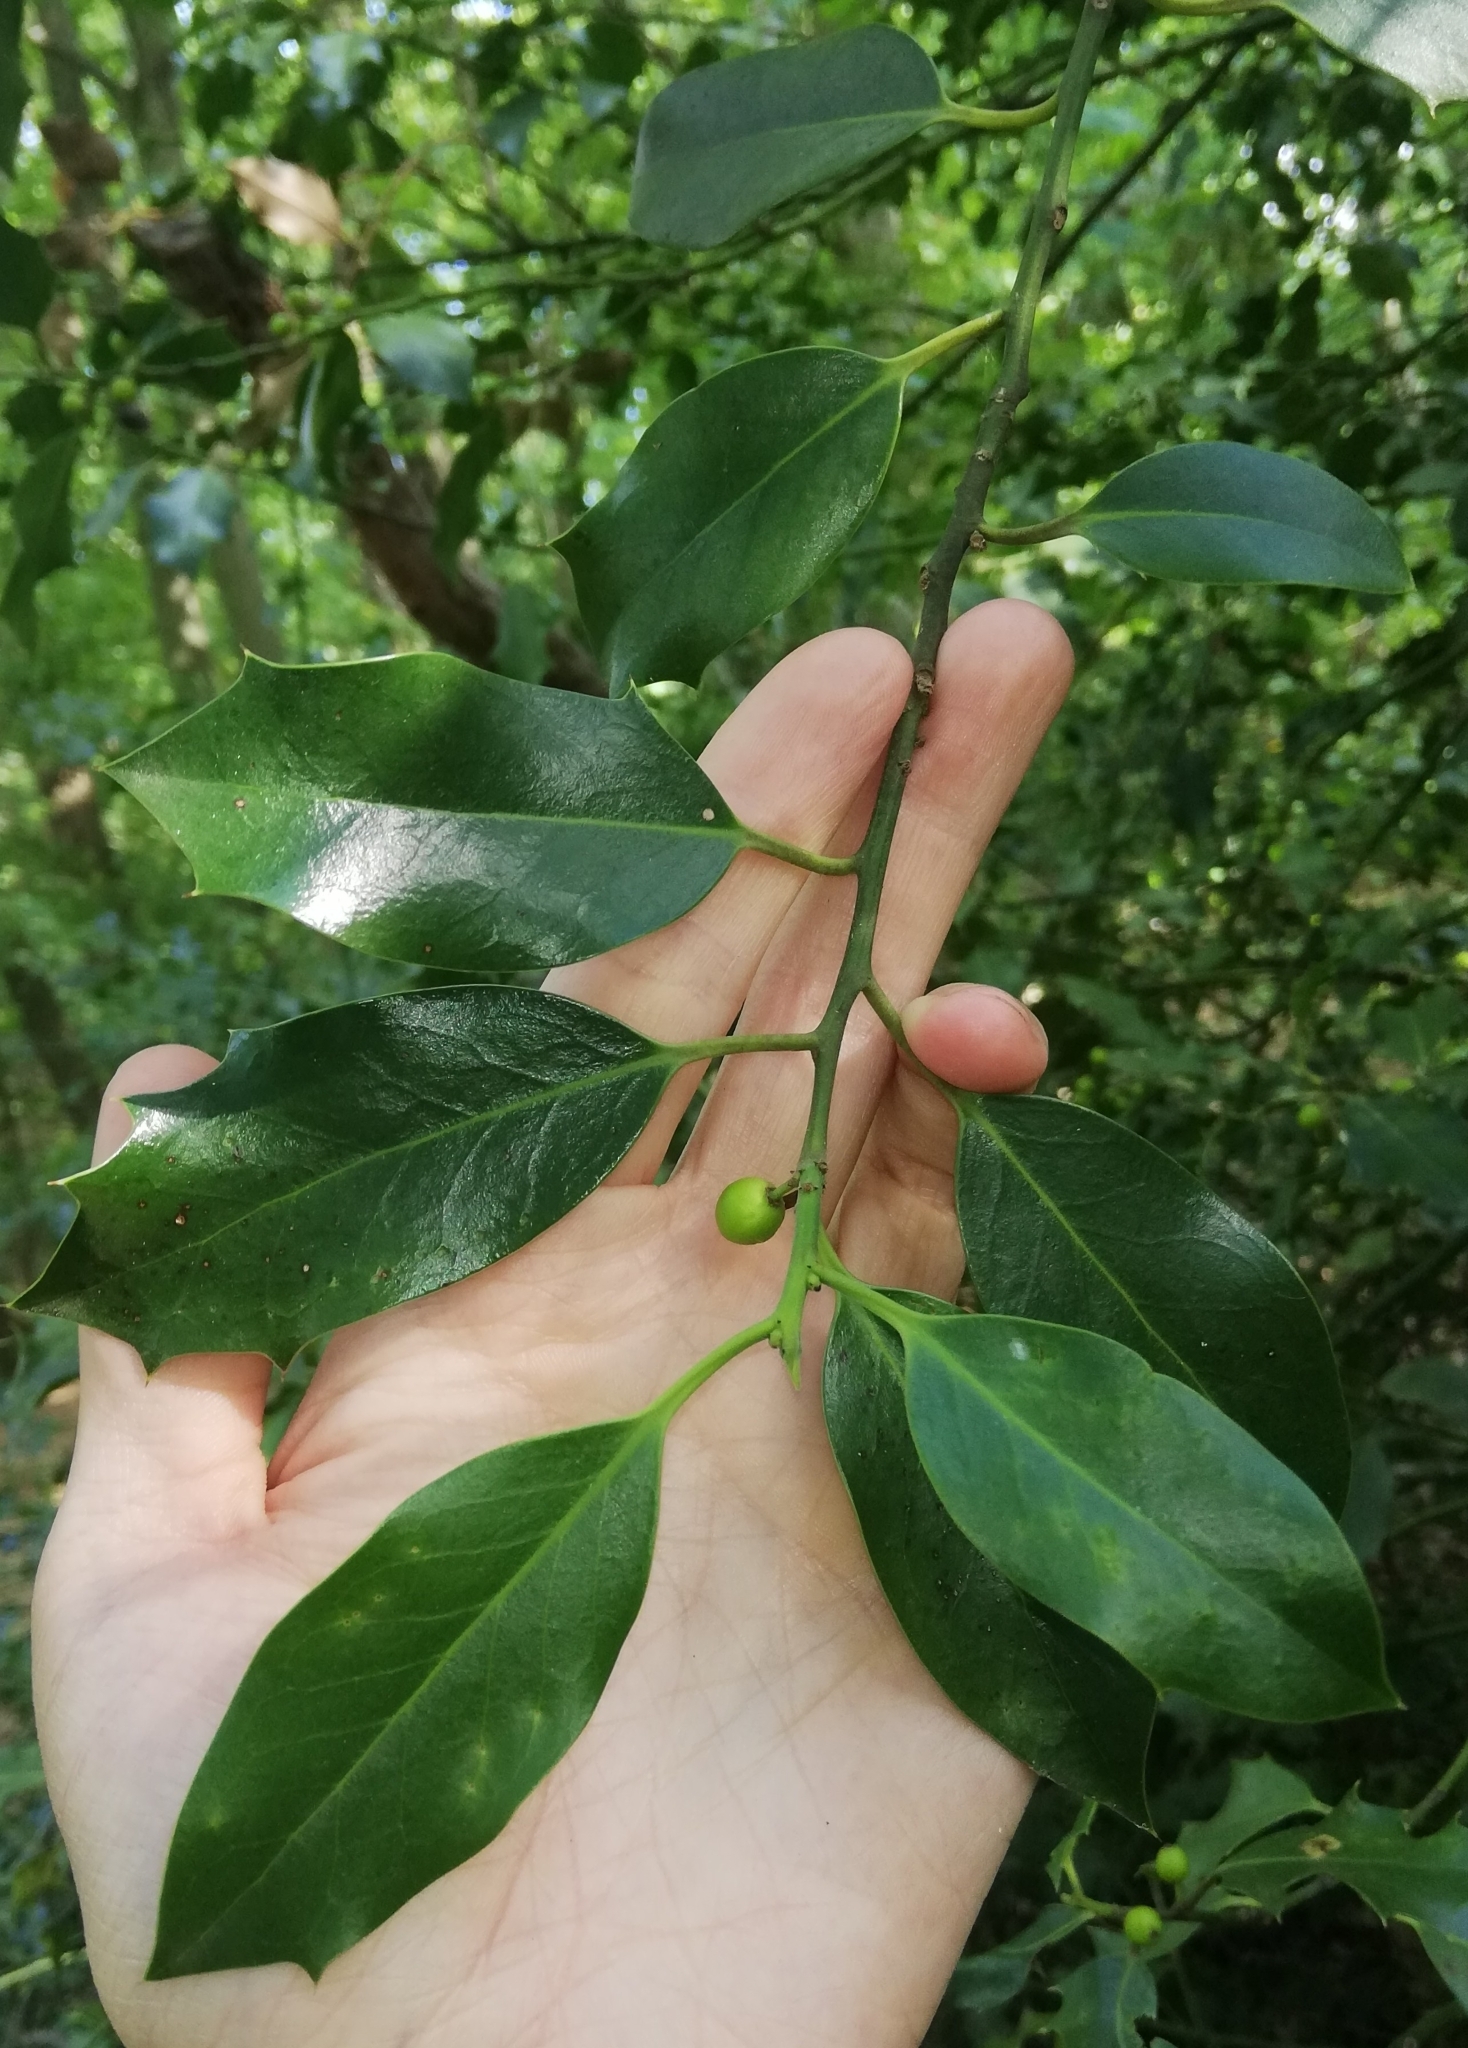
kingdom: Plantae
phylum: Tracheophyta
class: Magnoliopsida
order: Aquifoliales
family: Aquifoliaceae
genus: Ilex
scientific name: Ilex aquifolium
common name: English holly
